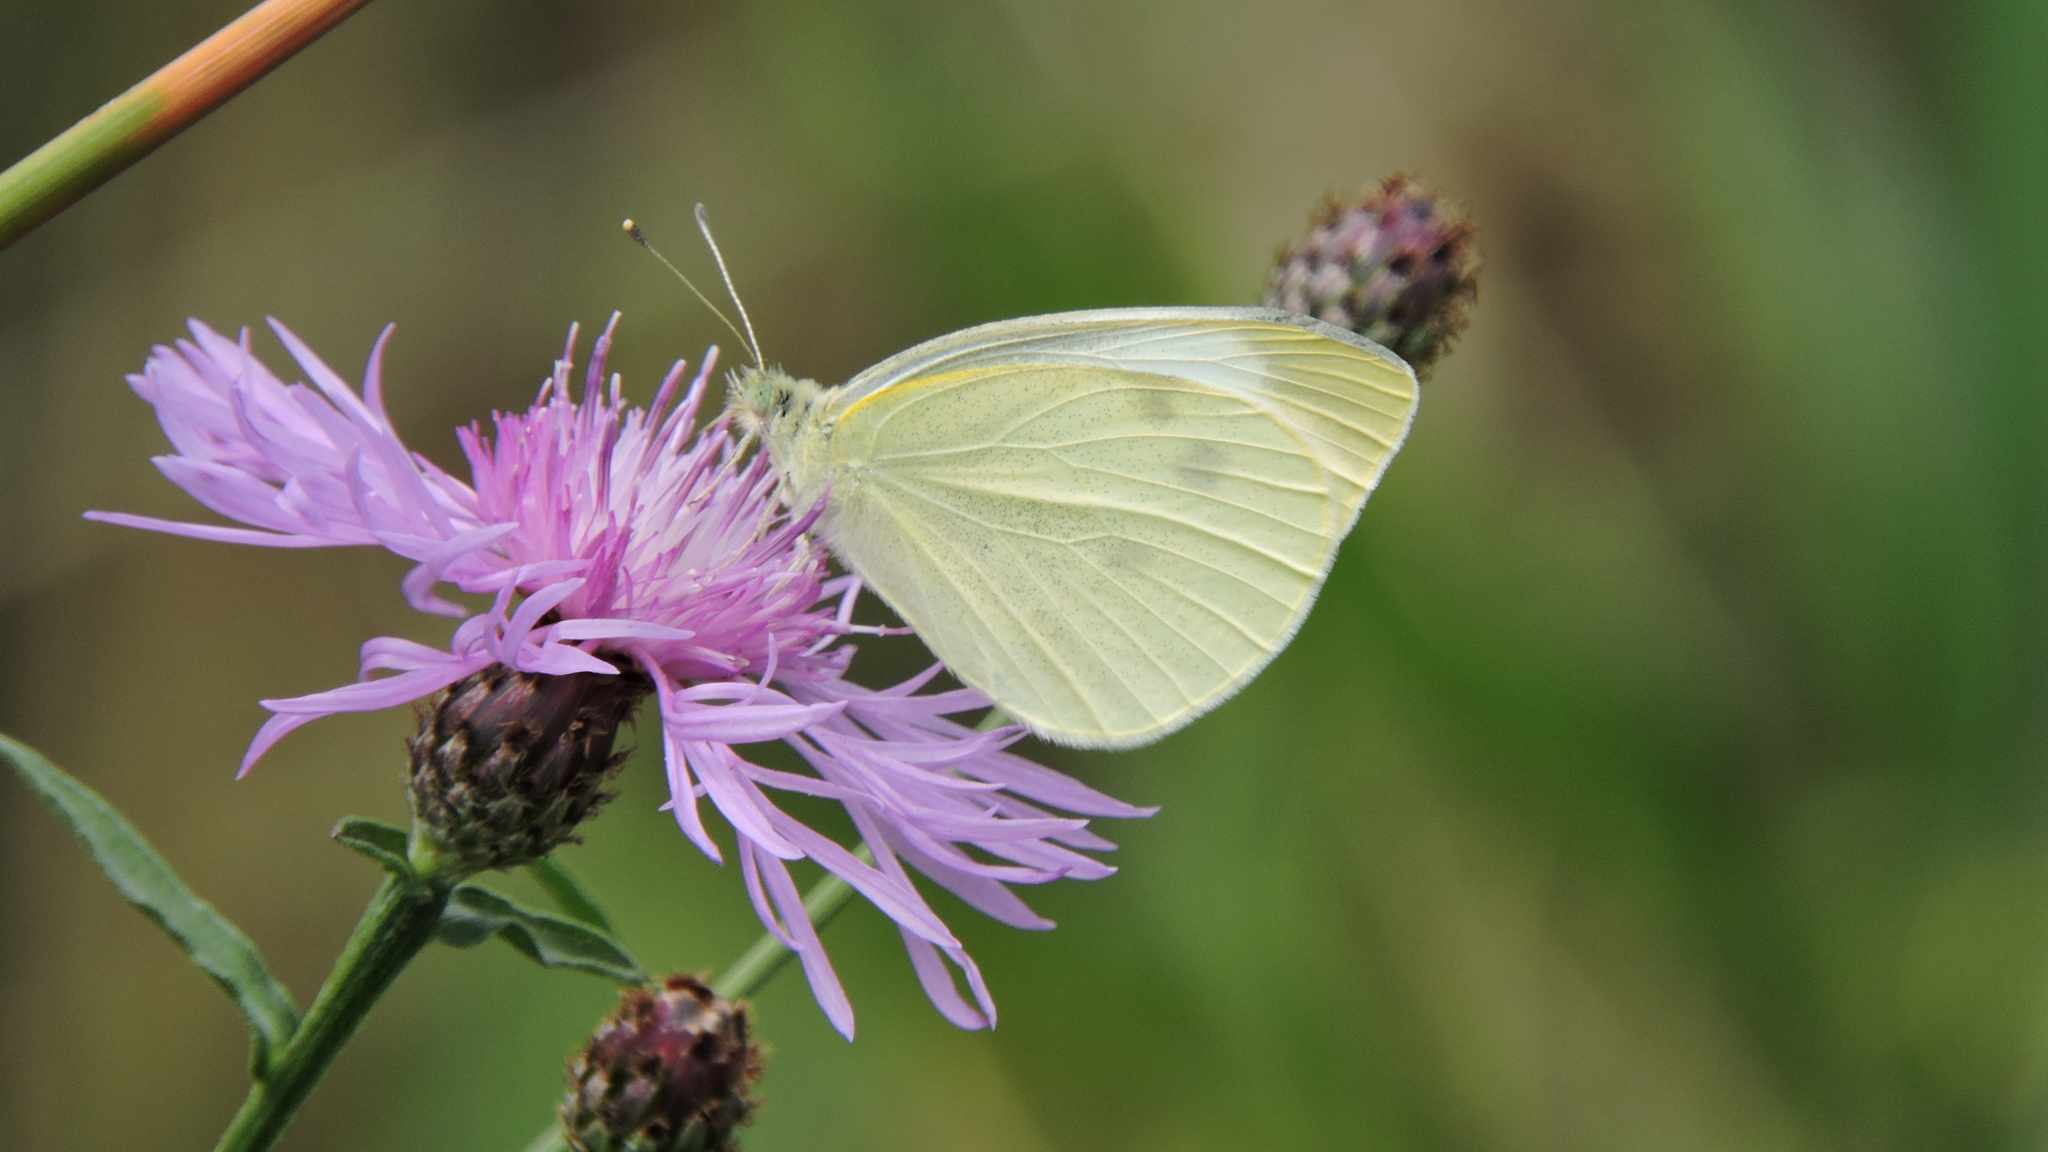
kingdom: Animalia
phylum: Arthropoda
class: Insecta
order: Lepidoptera
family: Pieridae
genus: Pieris
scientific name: Pieris rapae
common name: Small white
